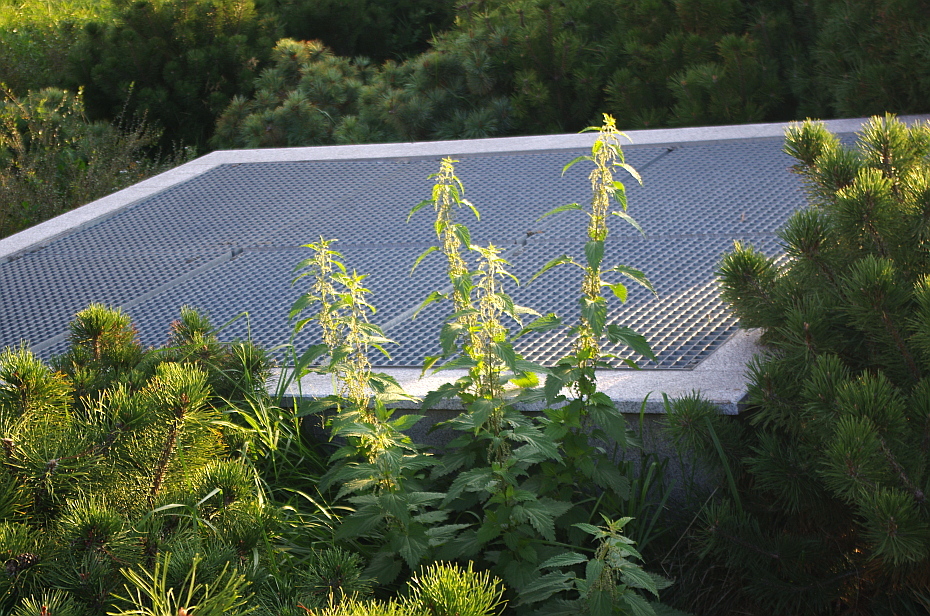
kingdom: Plantae
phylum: Tracheophyta
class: Magnoliopsida
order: Rosales
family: Urticaceae
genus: Urtica
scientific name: Urtica dioica
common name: Common nettle
